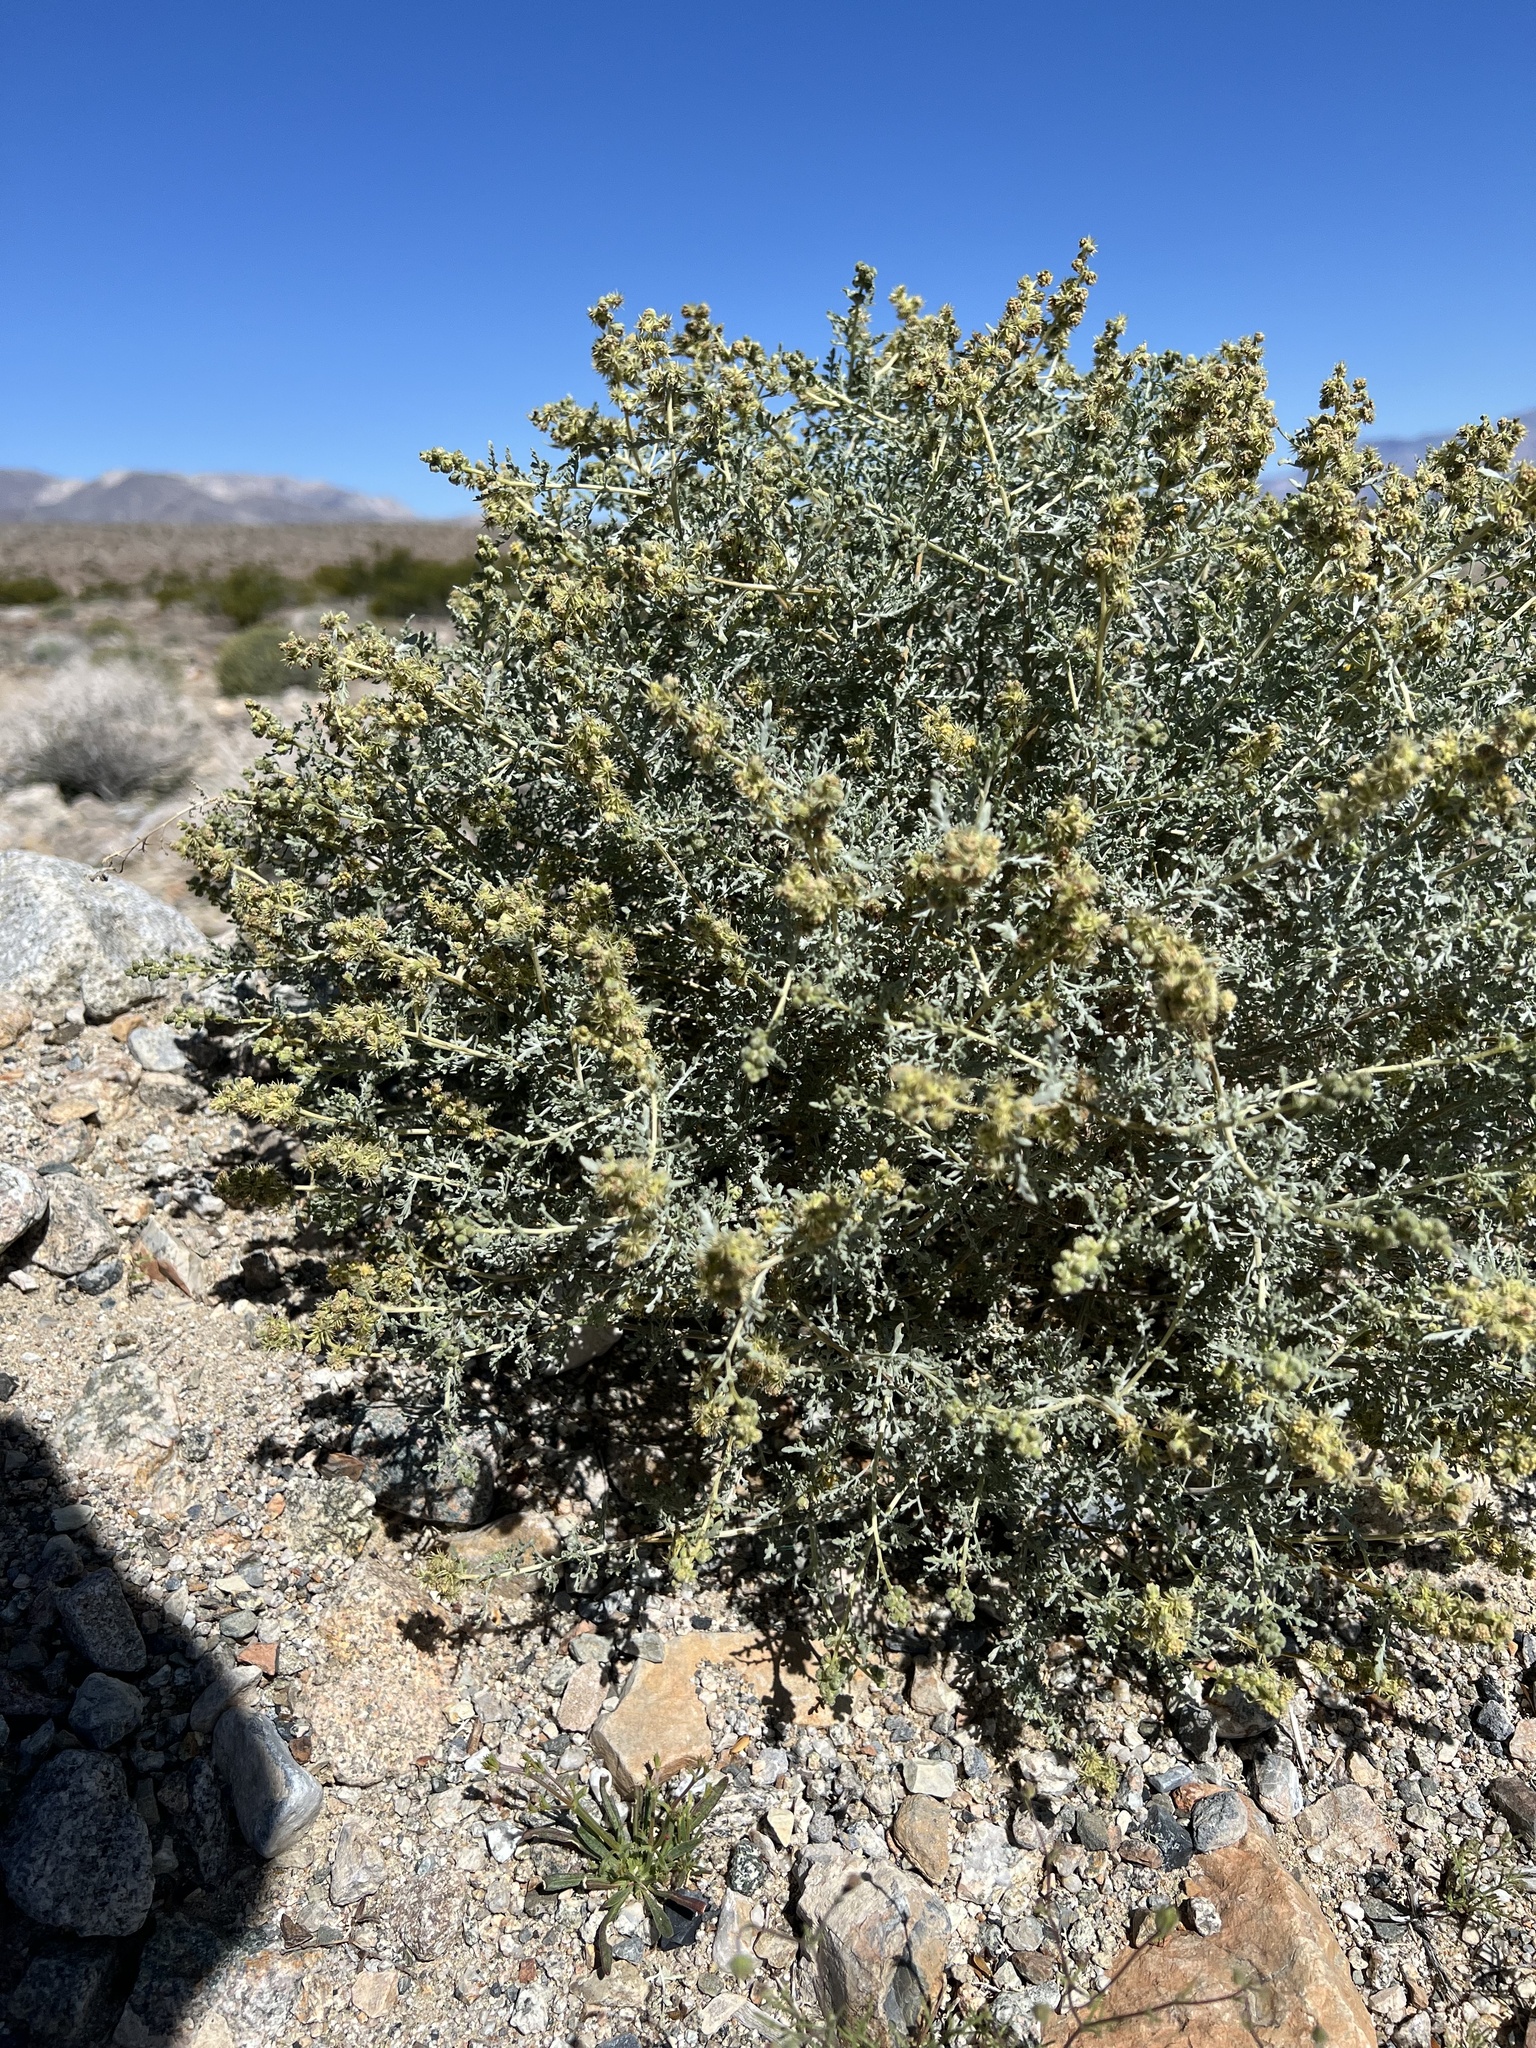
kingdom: Plantae
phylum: Tracheophyta
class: Magnoliopsida
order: Asterales
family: Asteraceae
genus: Ambrosia
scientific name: Ambrosia dumosa
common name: Bur-sage
